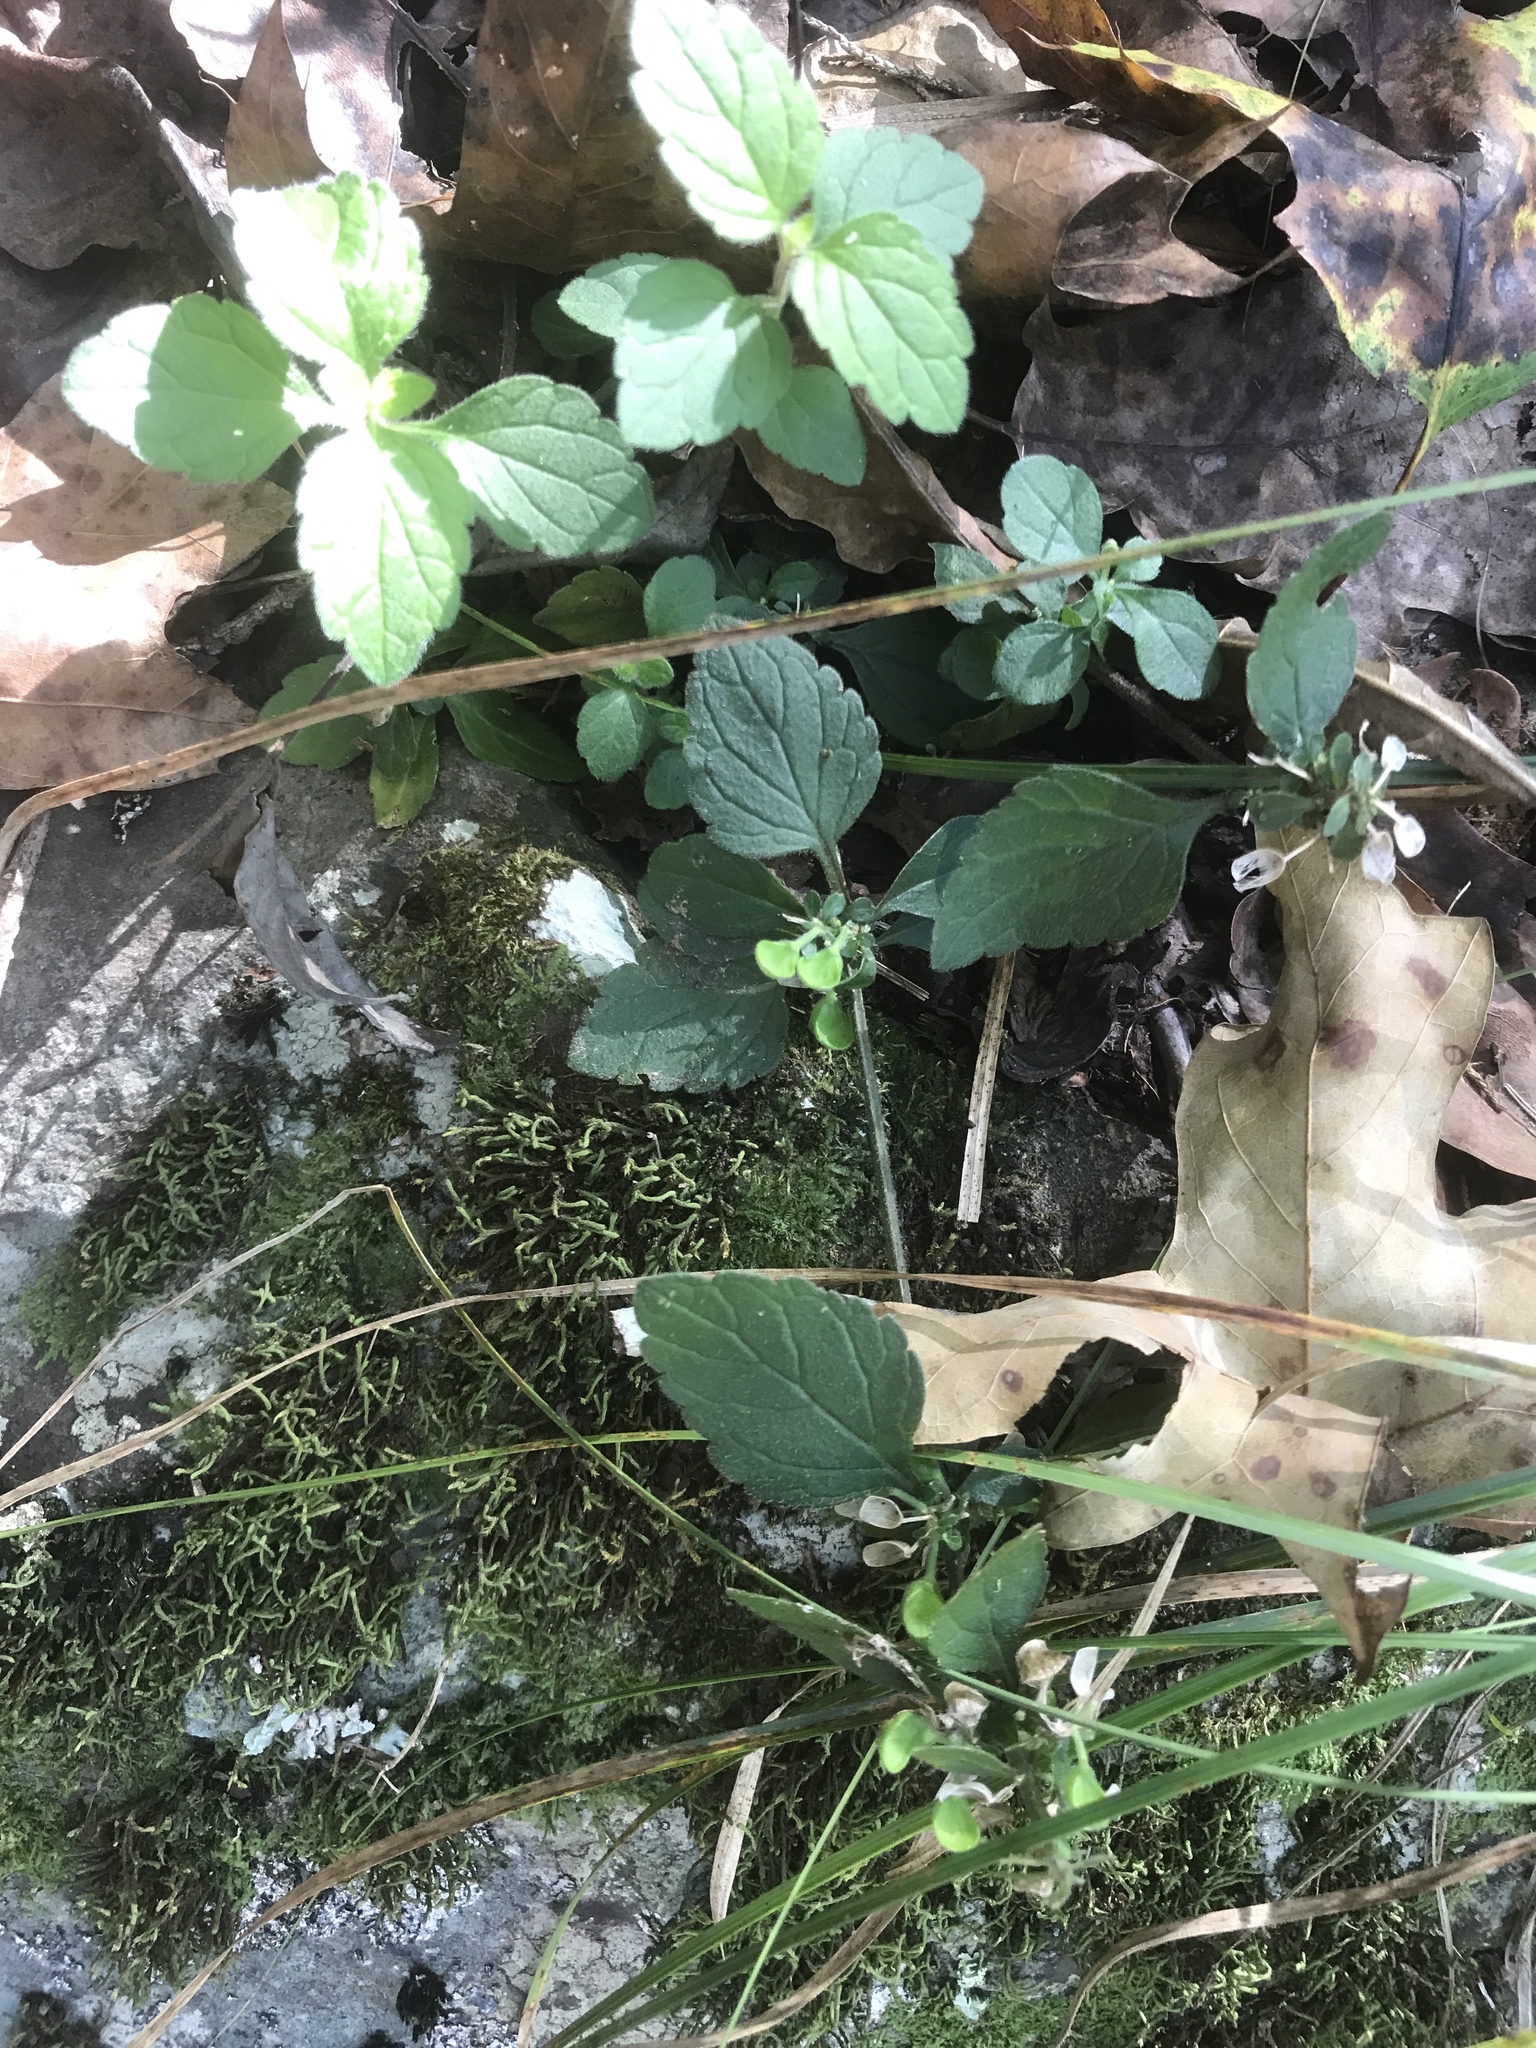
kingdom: Plantae
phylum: Tracheophyta
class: Magnoliopsida
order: Lamiales
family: Lamiaceae
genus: Scutellaria
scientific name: Scutellaria elliptica
